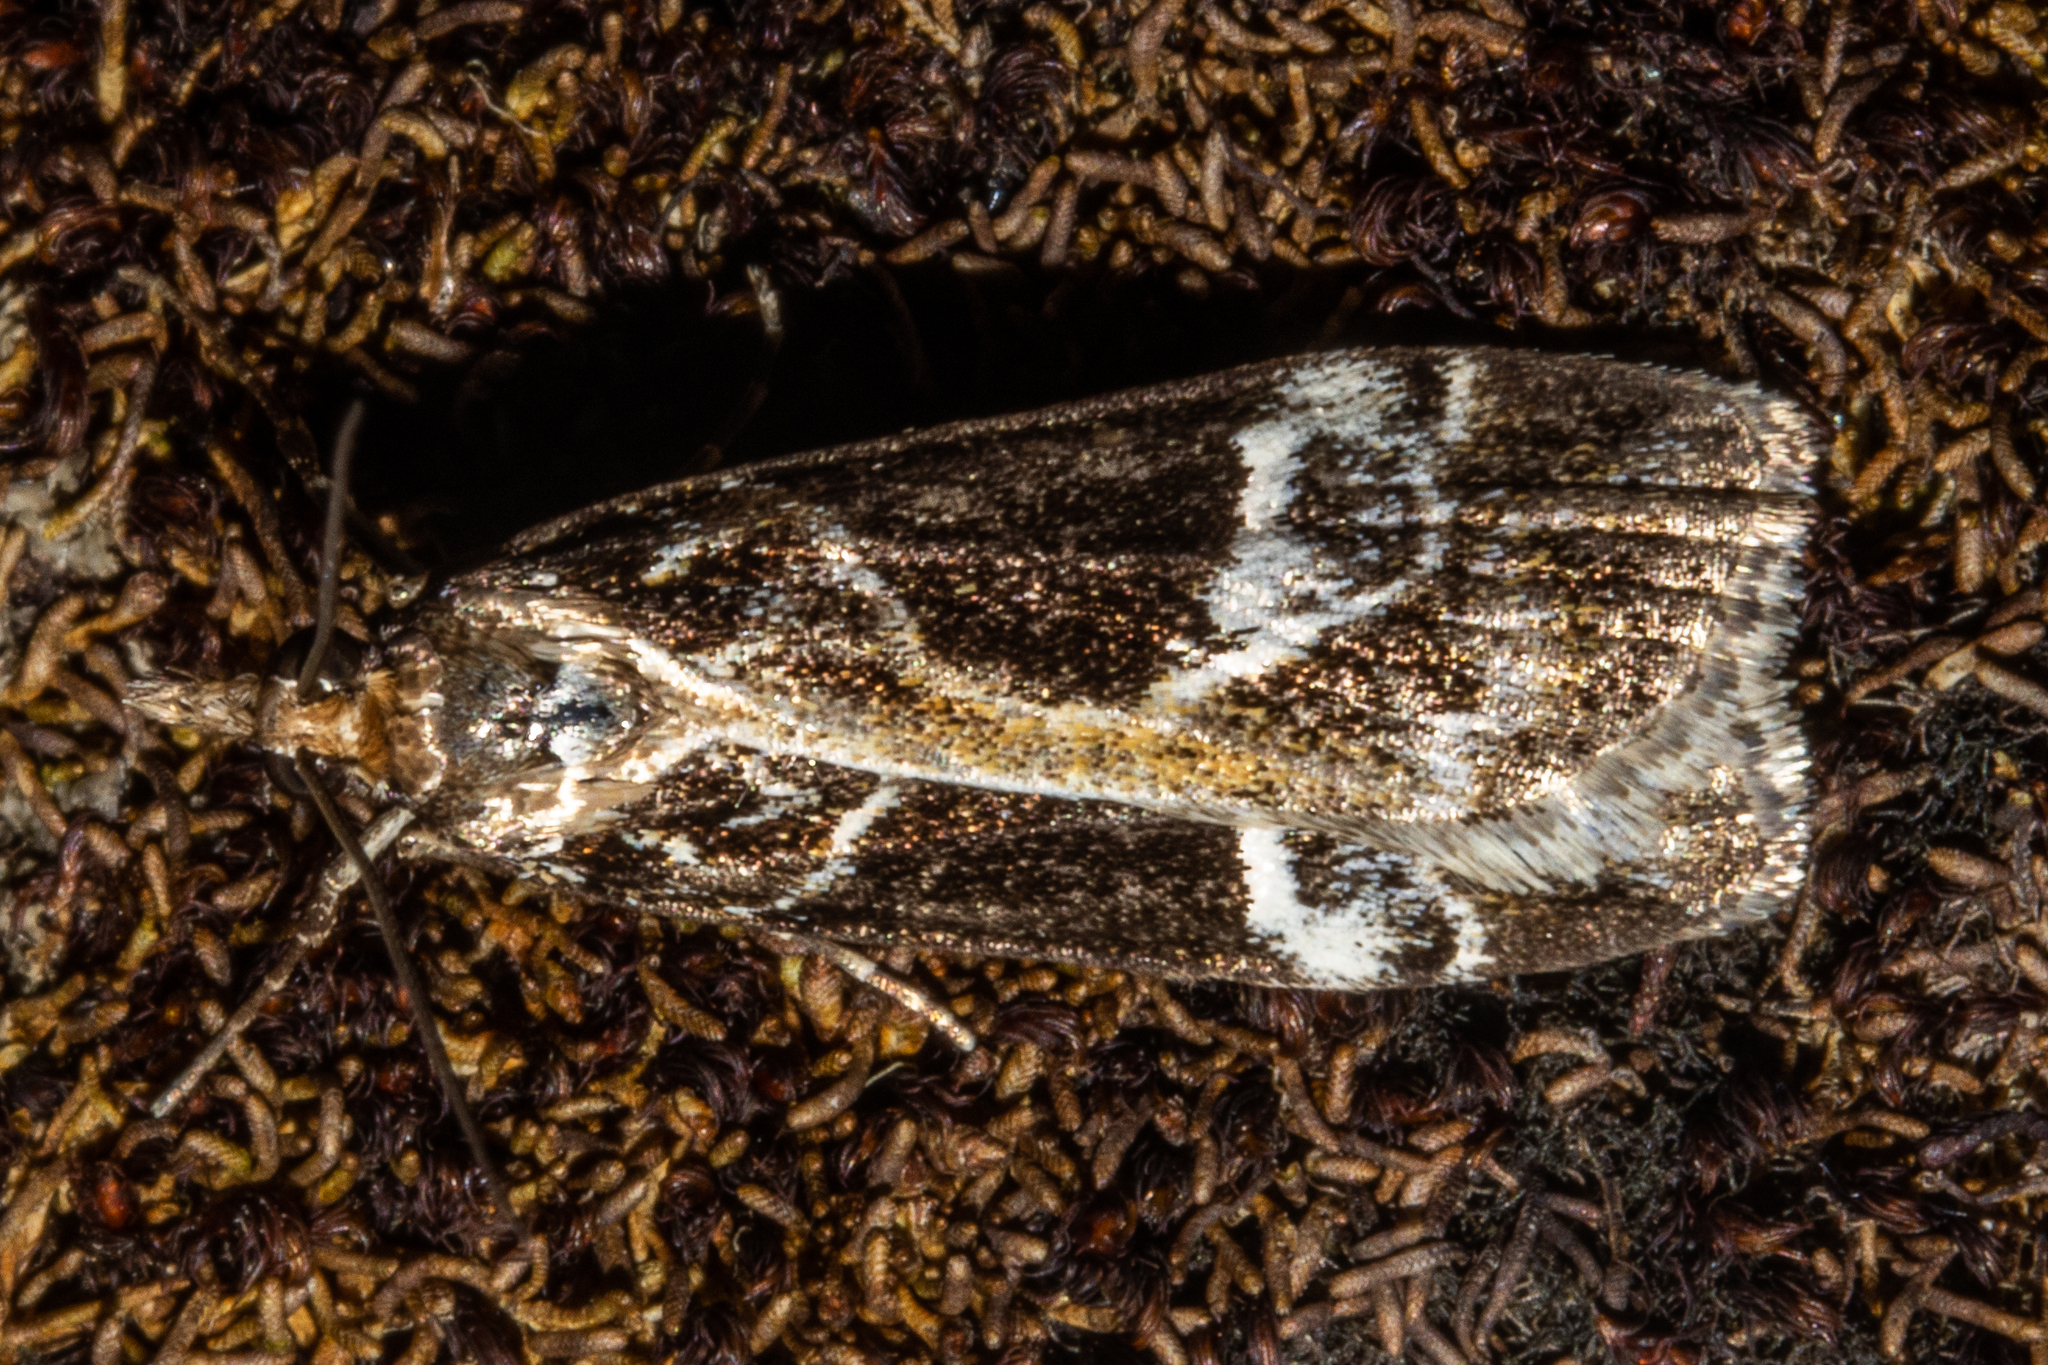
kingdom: Animalia
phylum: Arthropoda
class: Insecta
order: Lepidoptera
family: Crambidae
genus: Eudonia
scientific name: Eudonia melanaegis
